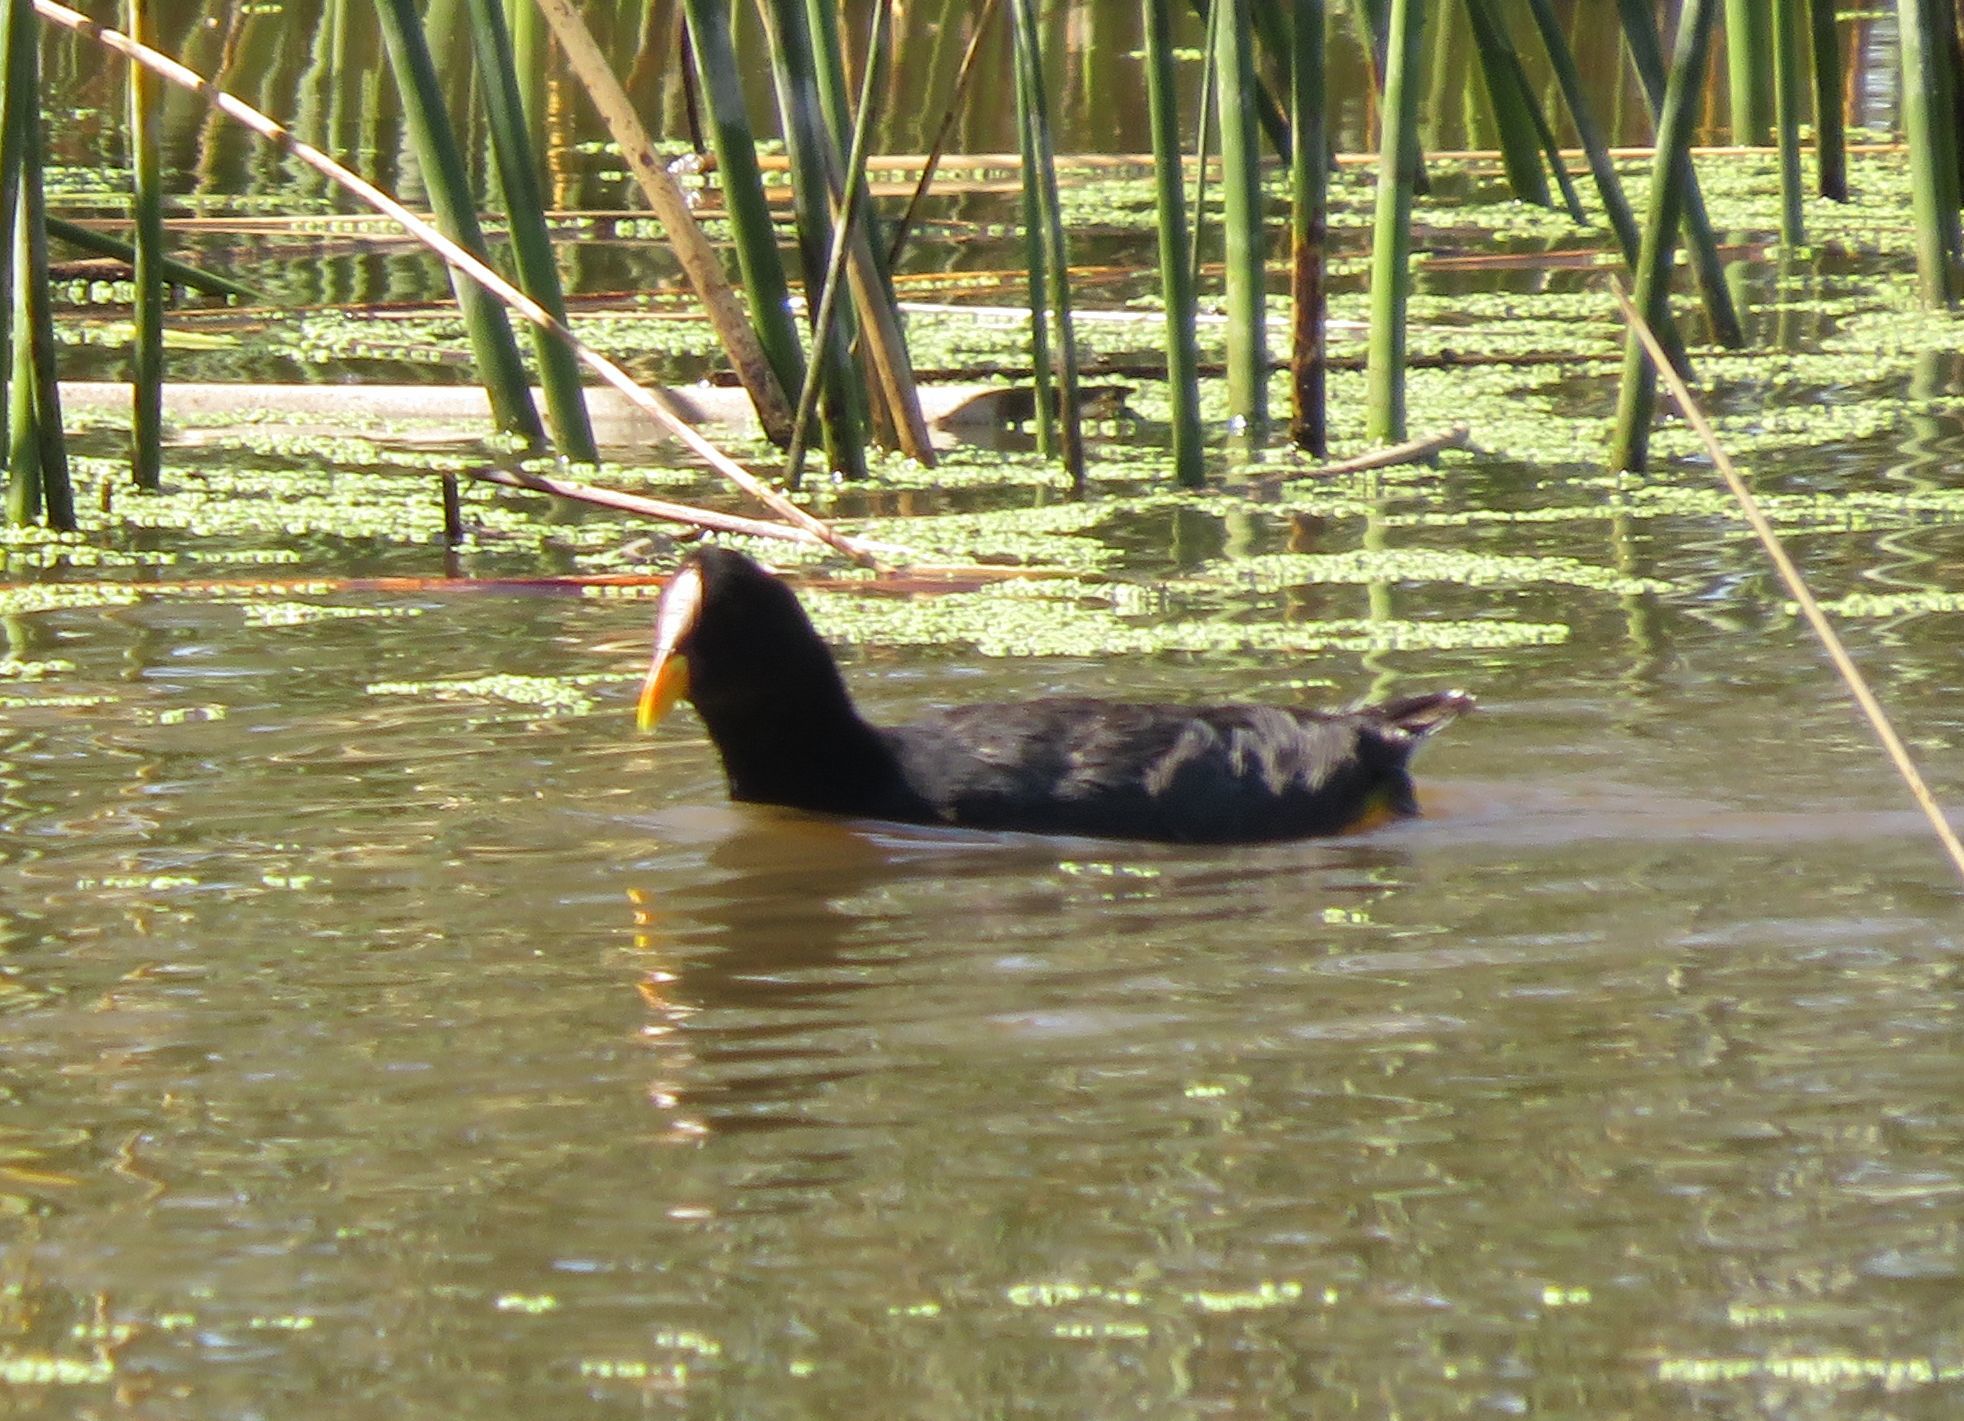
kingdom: Animalia
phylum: Chordata
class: Aves
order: Gruiformes
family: Rallidae
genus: Fulica
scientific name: Fulica rufifrons
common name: Red-fronted coot
